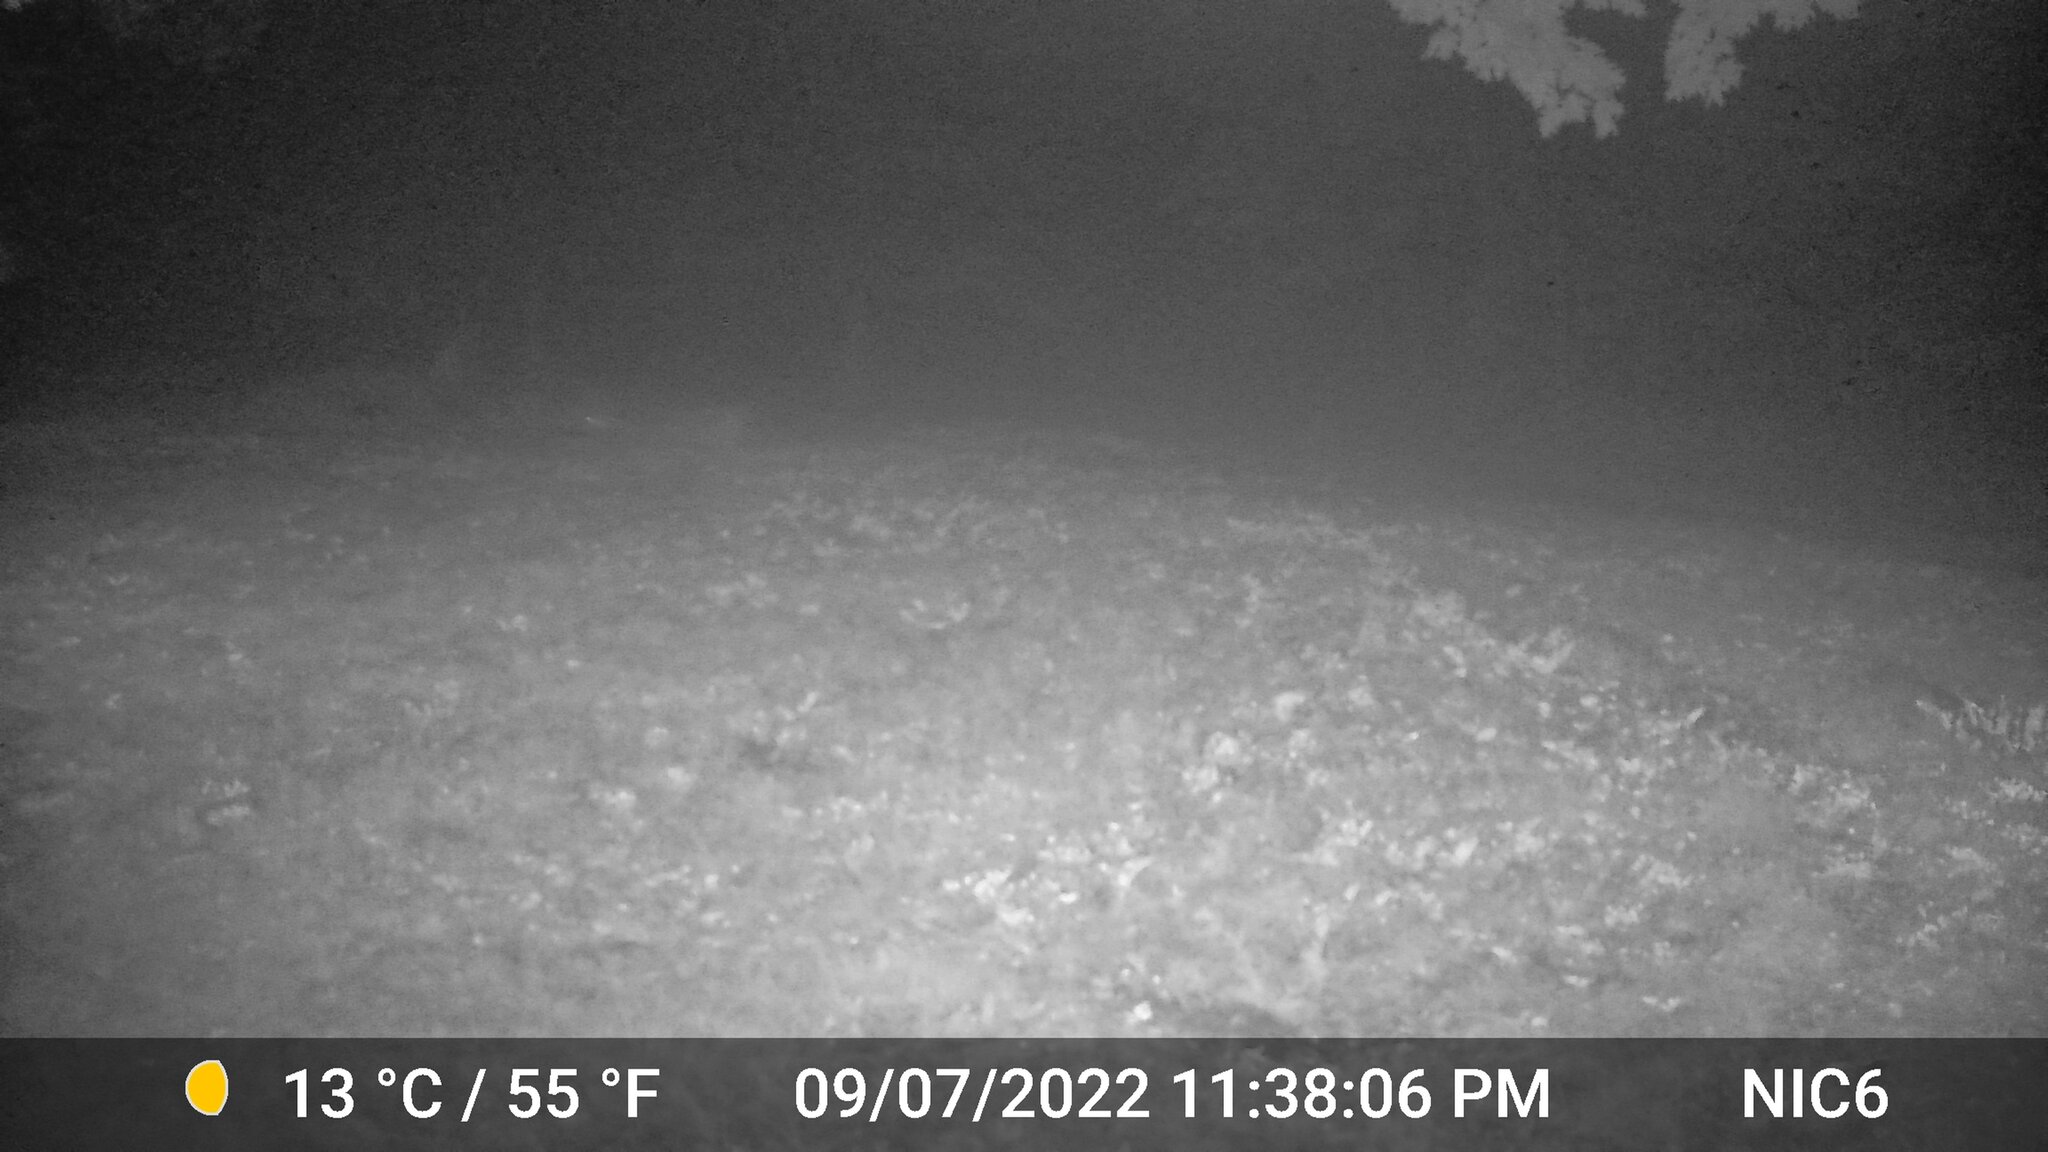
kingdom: Animalia
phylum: Chordata
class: Mammalia
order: Artiodactyla
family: Cervidae
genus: Odocoileus
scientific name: Odocoileus virginianus
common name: White-tailed deer
